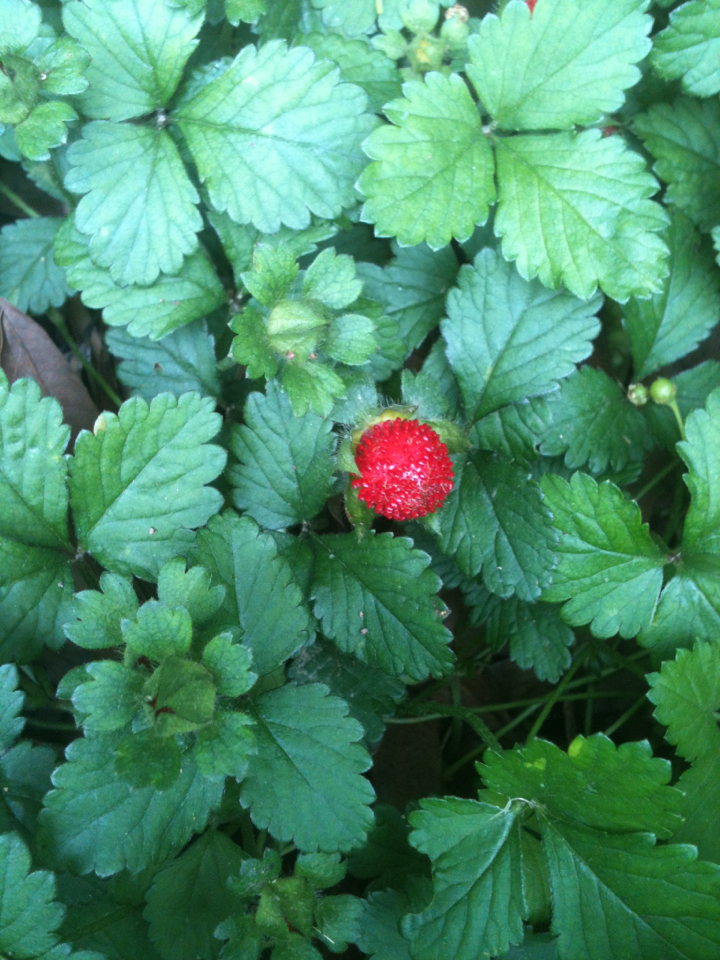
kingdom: Plantae
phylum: Tracheophyta
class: Magnoliopsida
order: Rosales
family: Rosaceae
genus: Potentilla
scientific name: Potentilla indica
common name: Yellow-flowered strawberry
